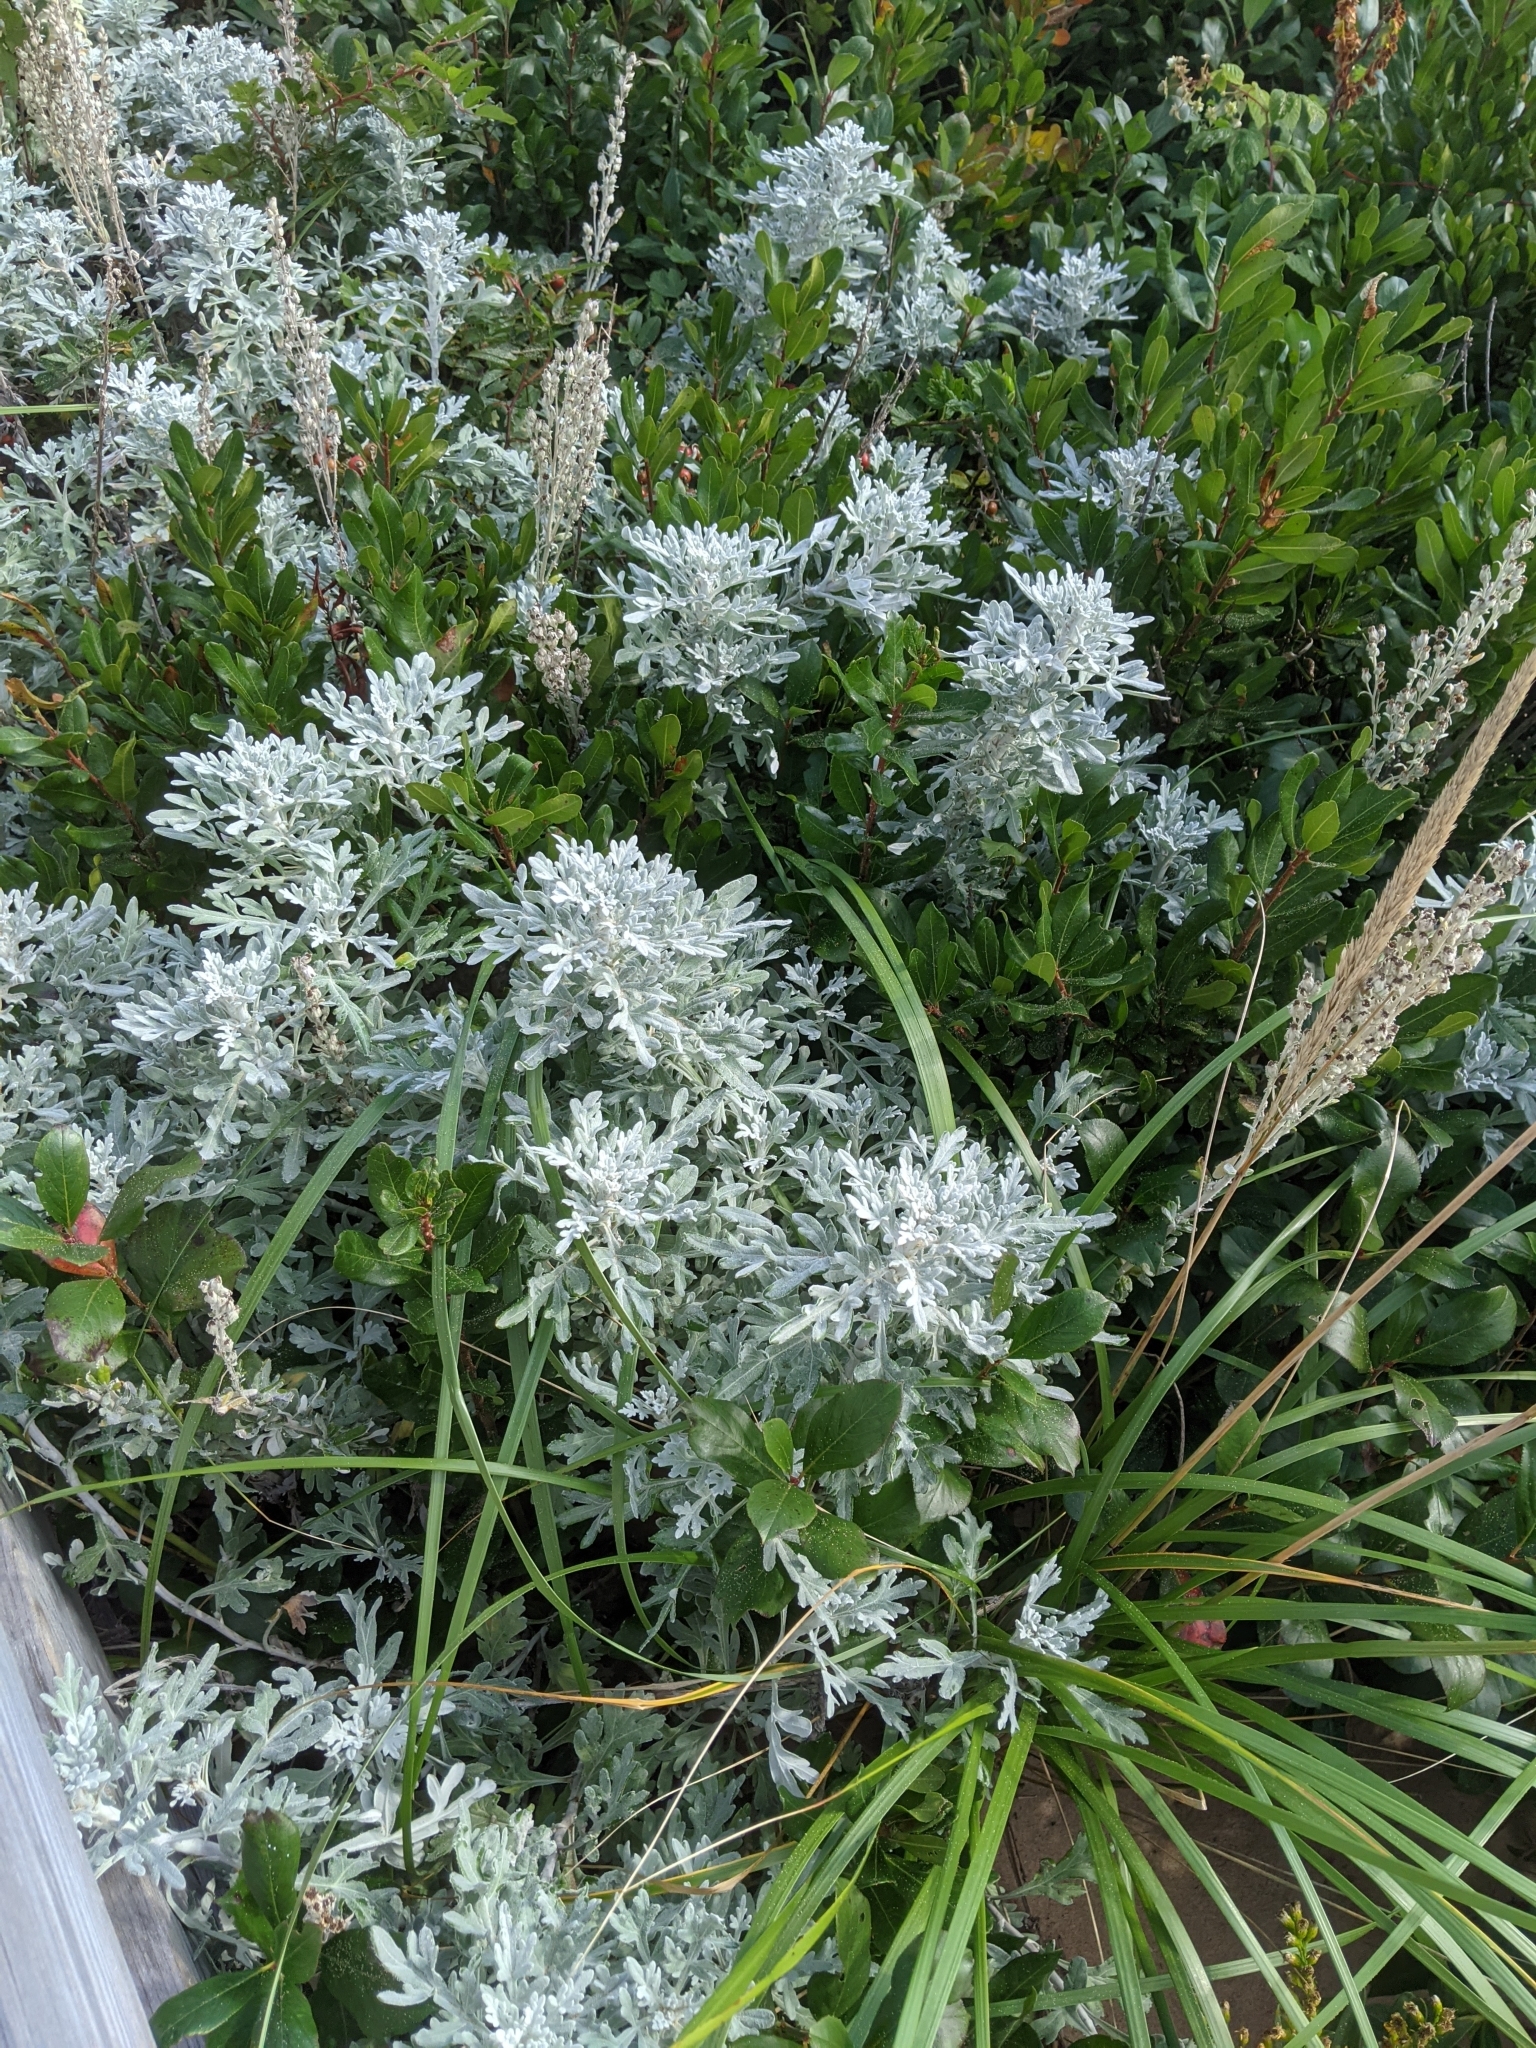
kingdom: Plantae
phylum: Tracheophyta
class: Magnoliopsida
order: Asterales
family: Asteraceae
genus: Artemisia
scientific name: Artemisia stelleriana
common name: Beach wormwood
